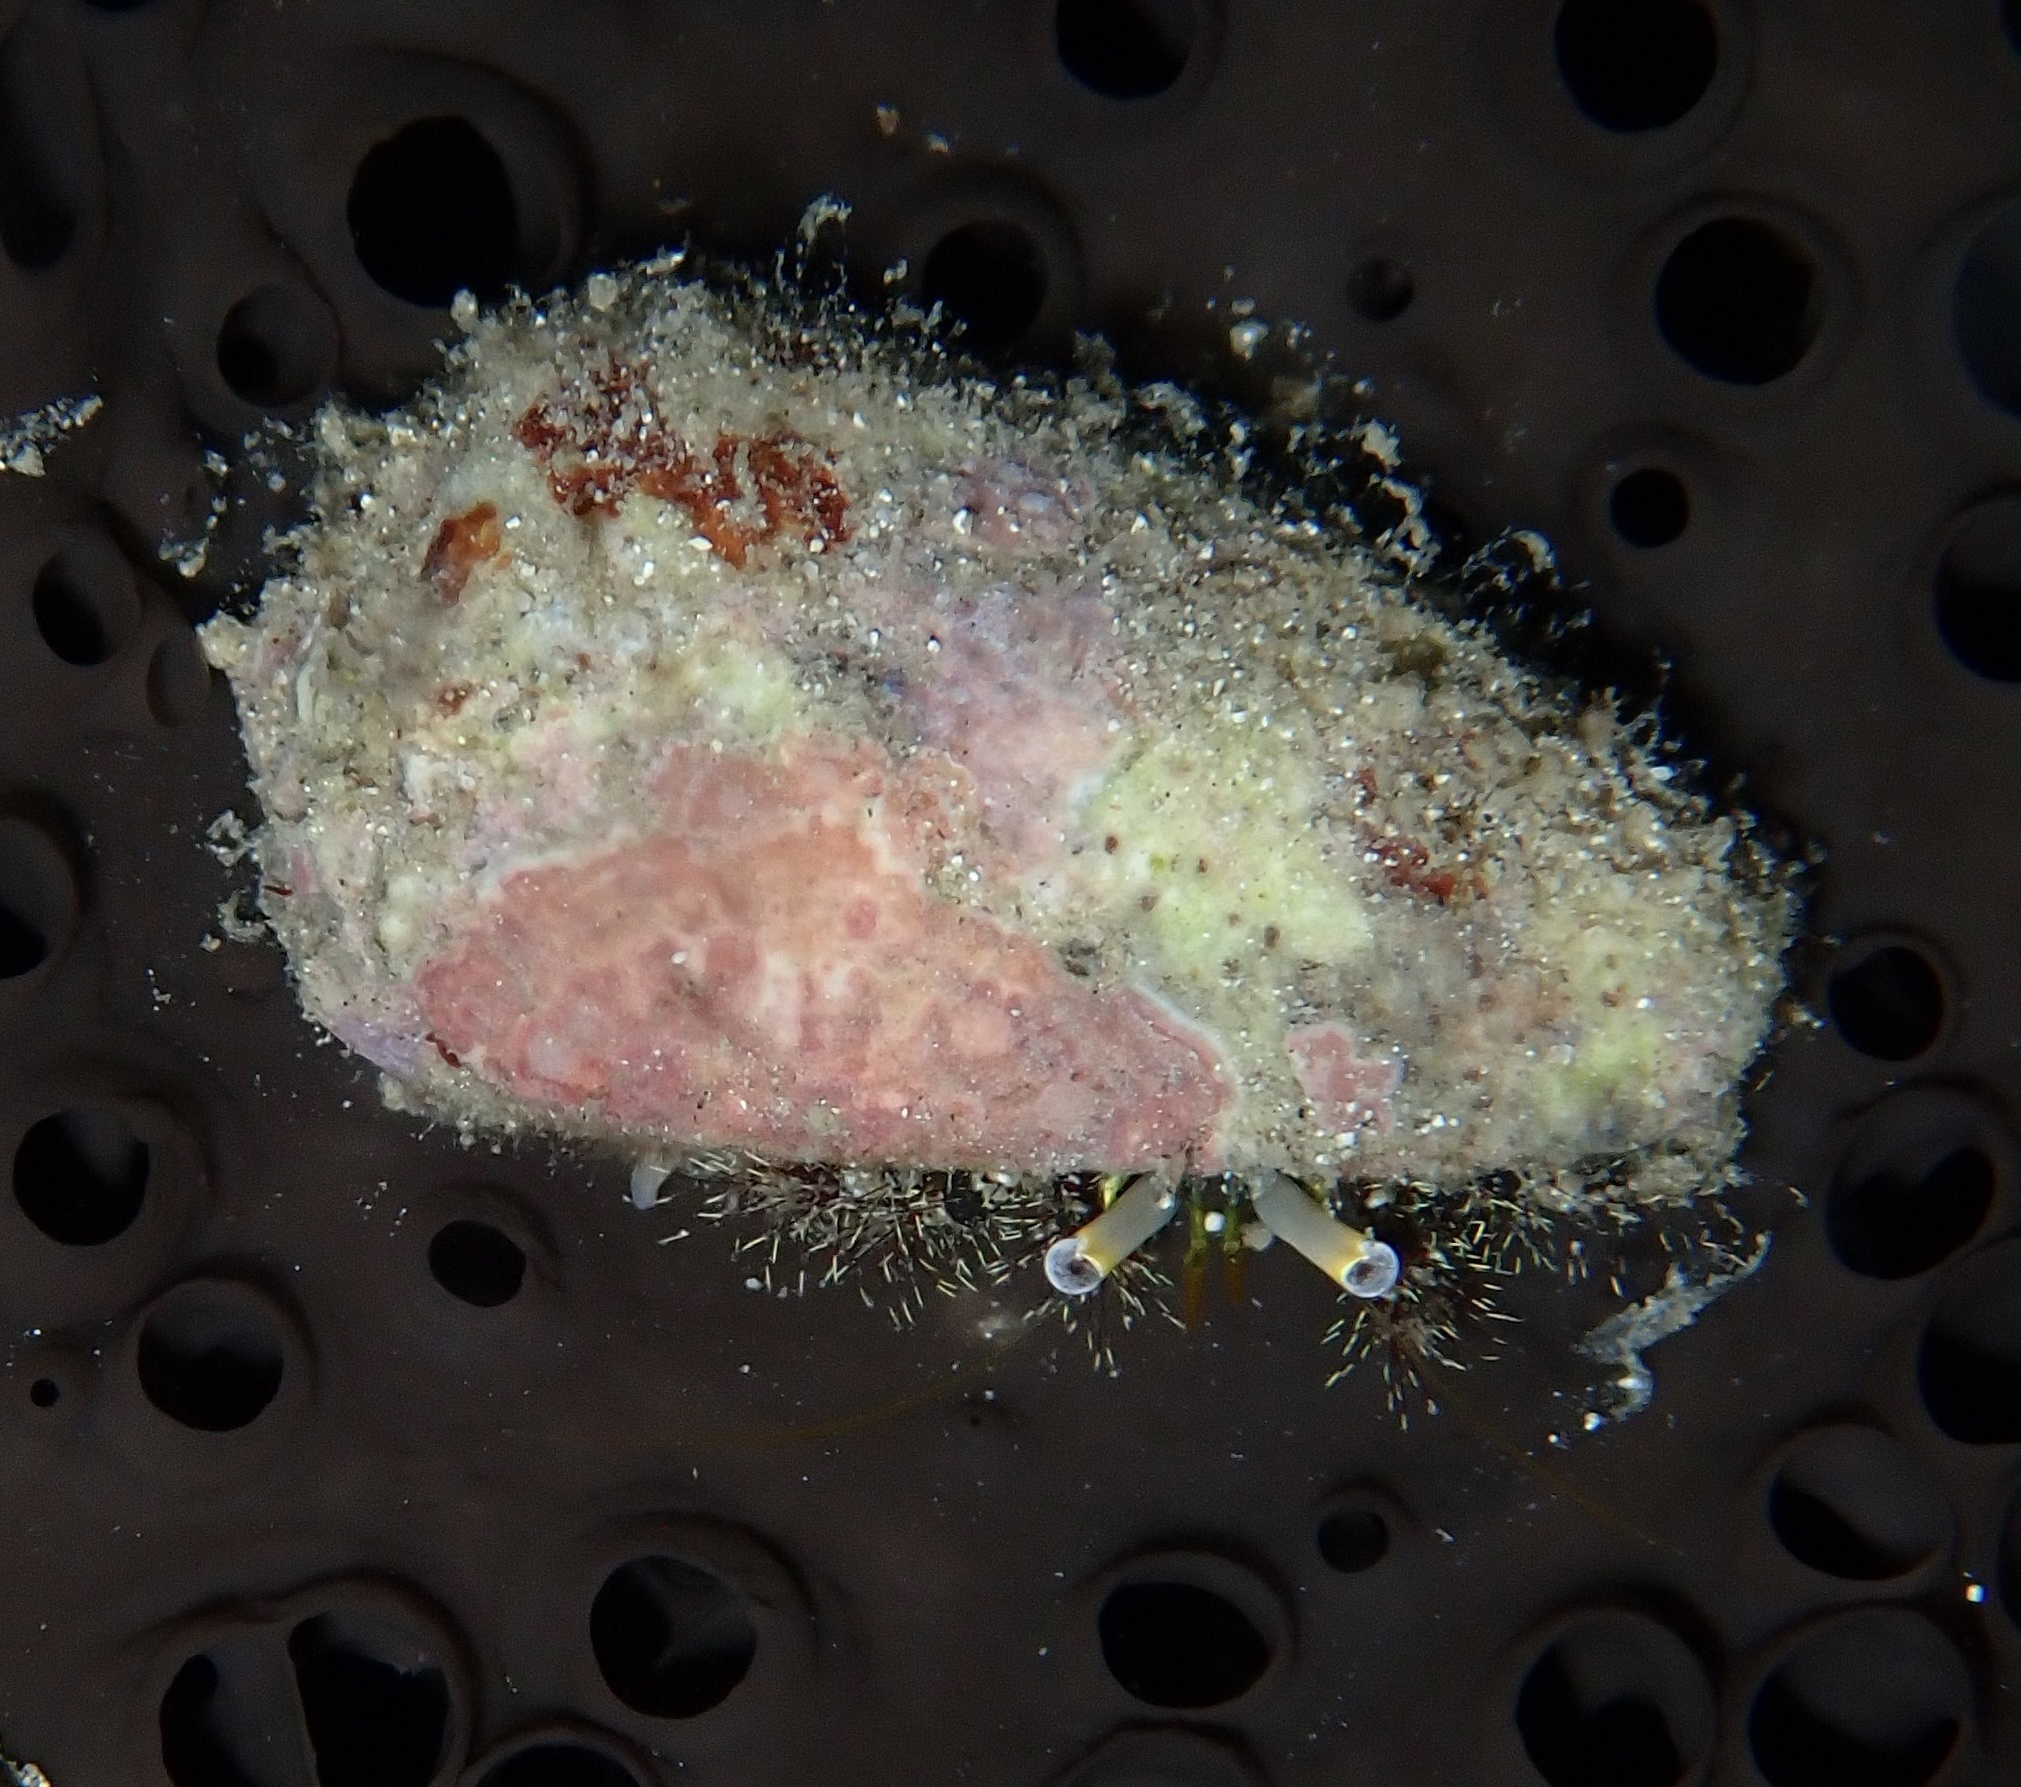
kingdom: Animalia
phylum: Arthropoda
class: Malacostraca
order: Decapoda
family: Diogenidae
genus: Dardanus
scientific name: Dardanus lagopodes
